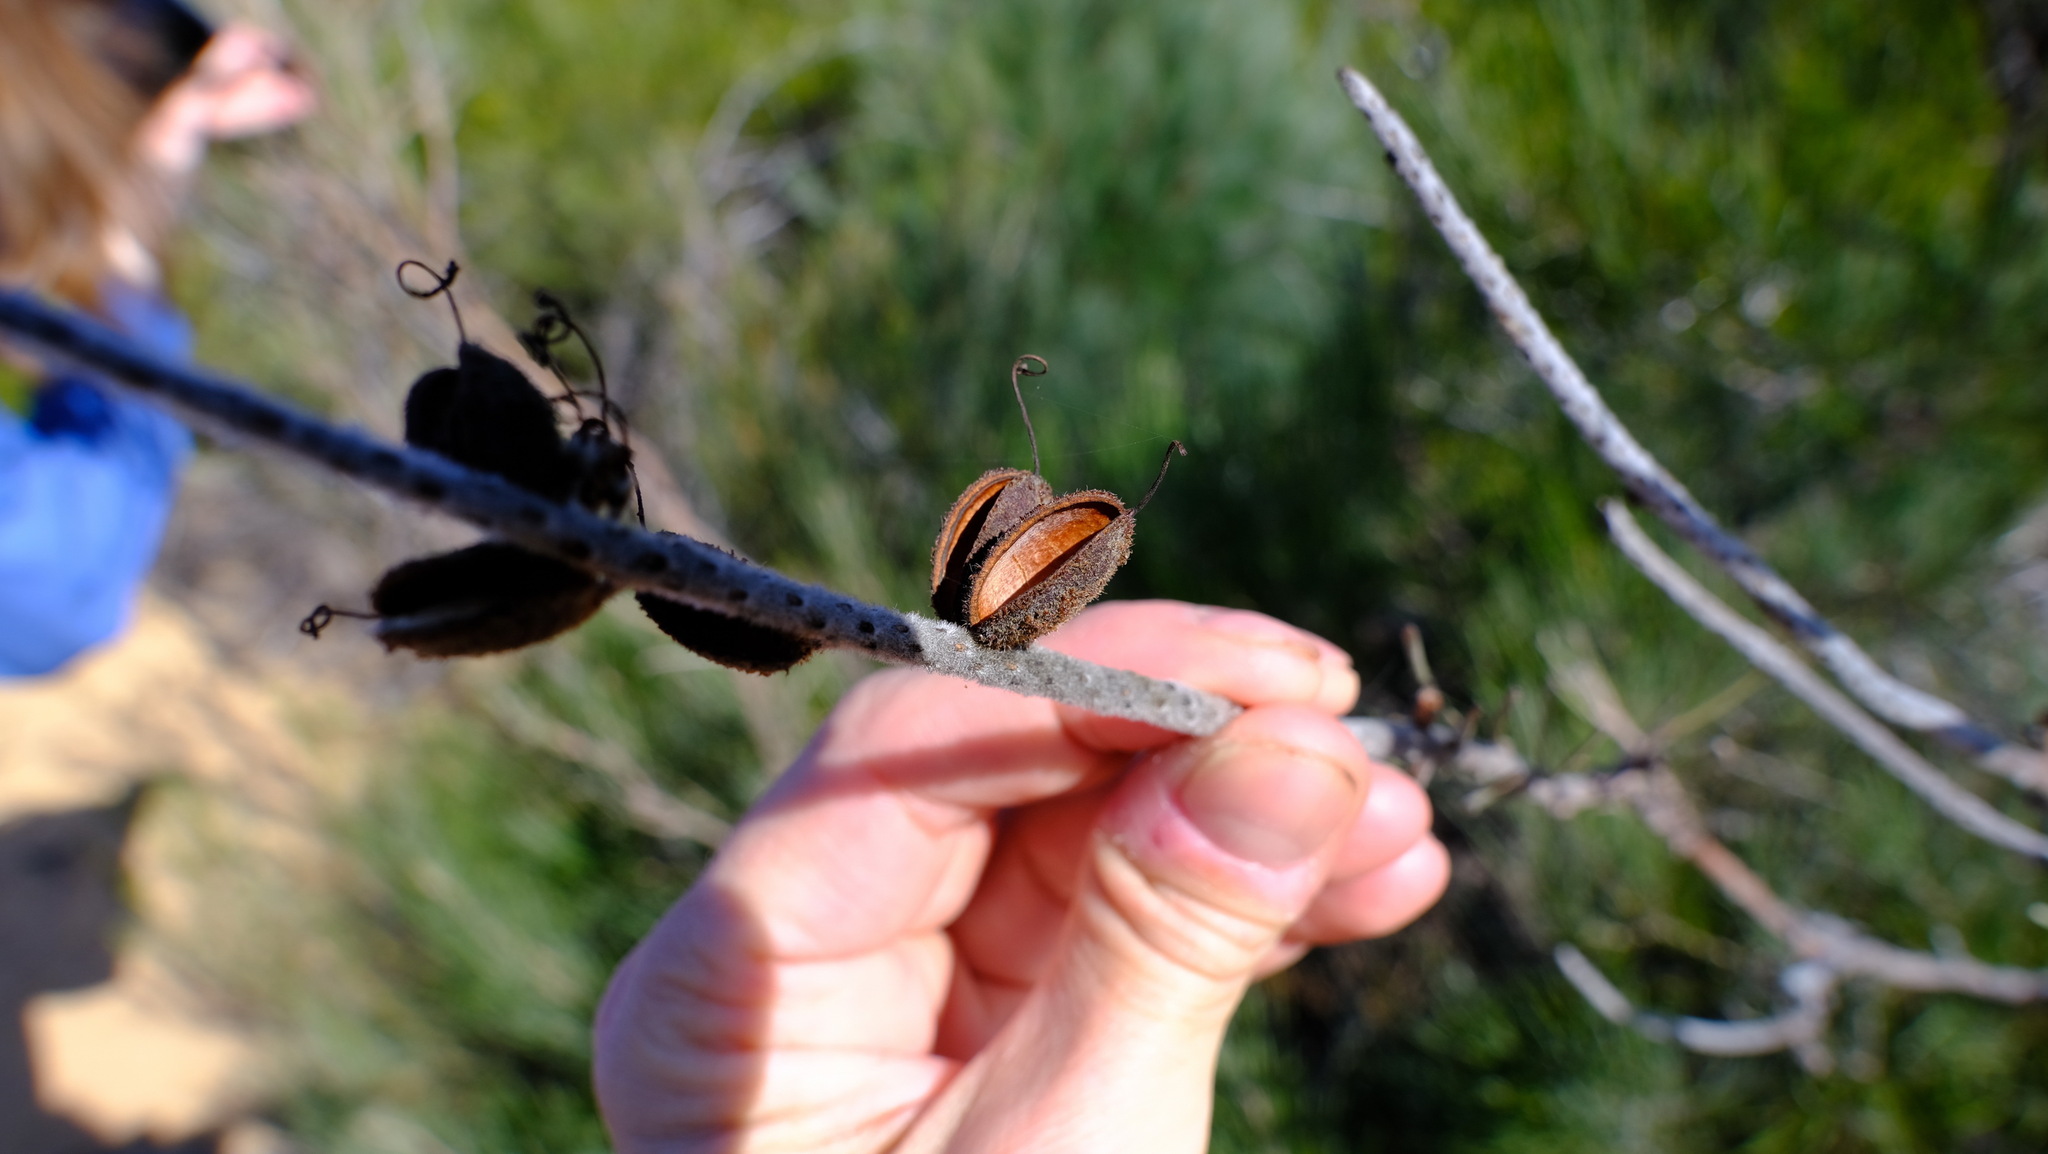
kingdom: Plantae
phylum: Tracheophyta
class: Magnoliopsida
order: Proteales
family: Proteaceae
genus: Grevillea
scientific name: Grevillea eriostachya
